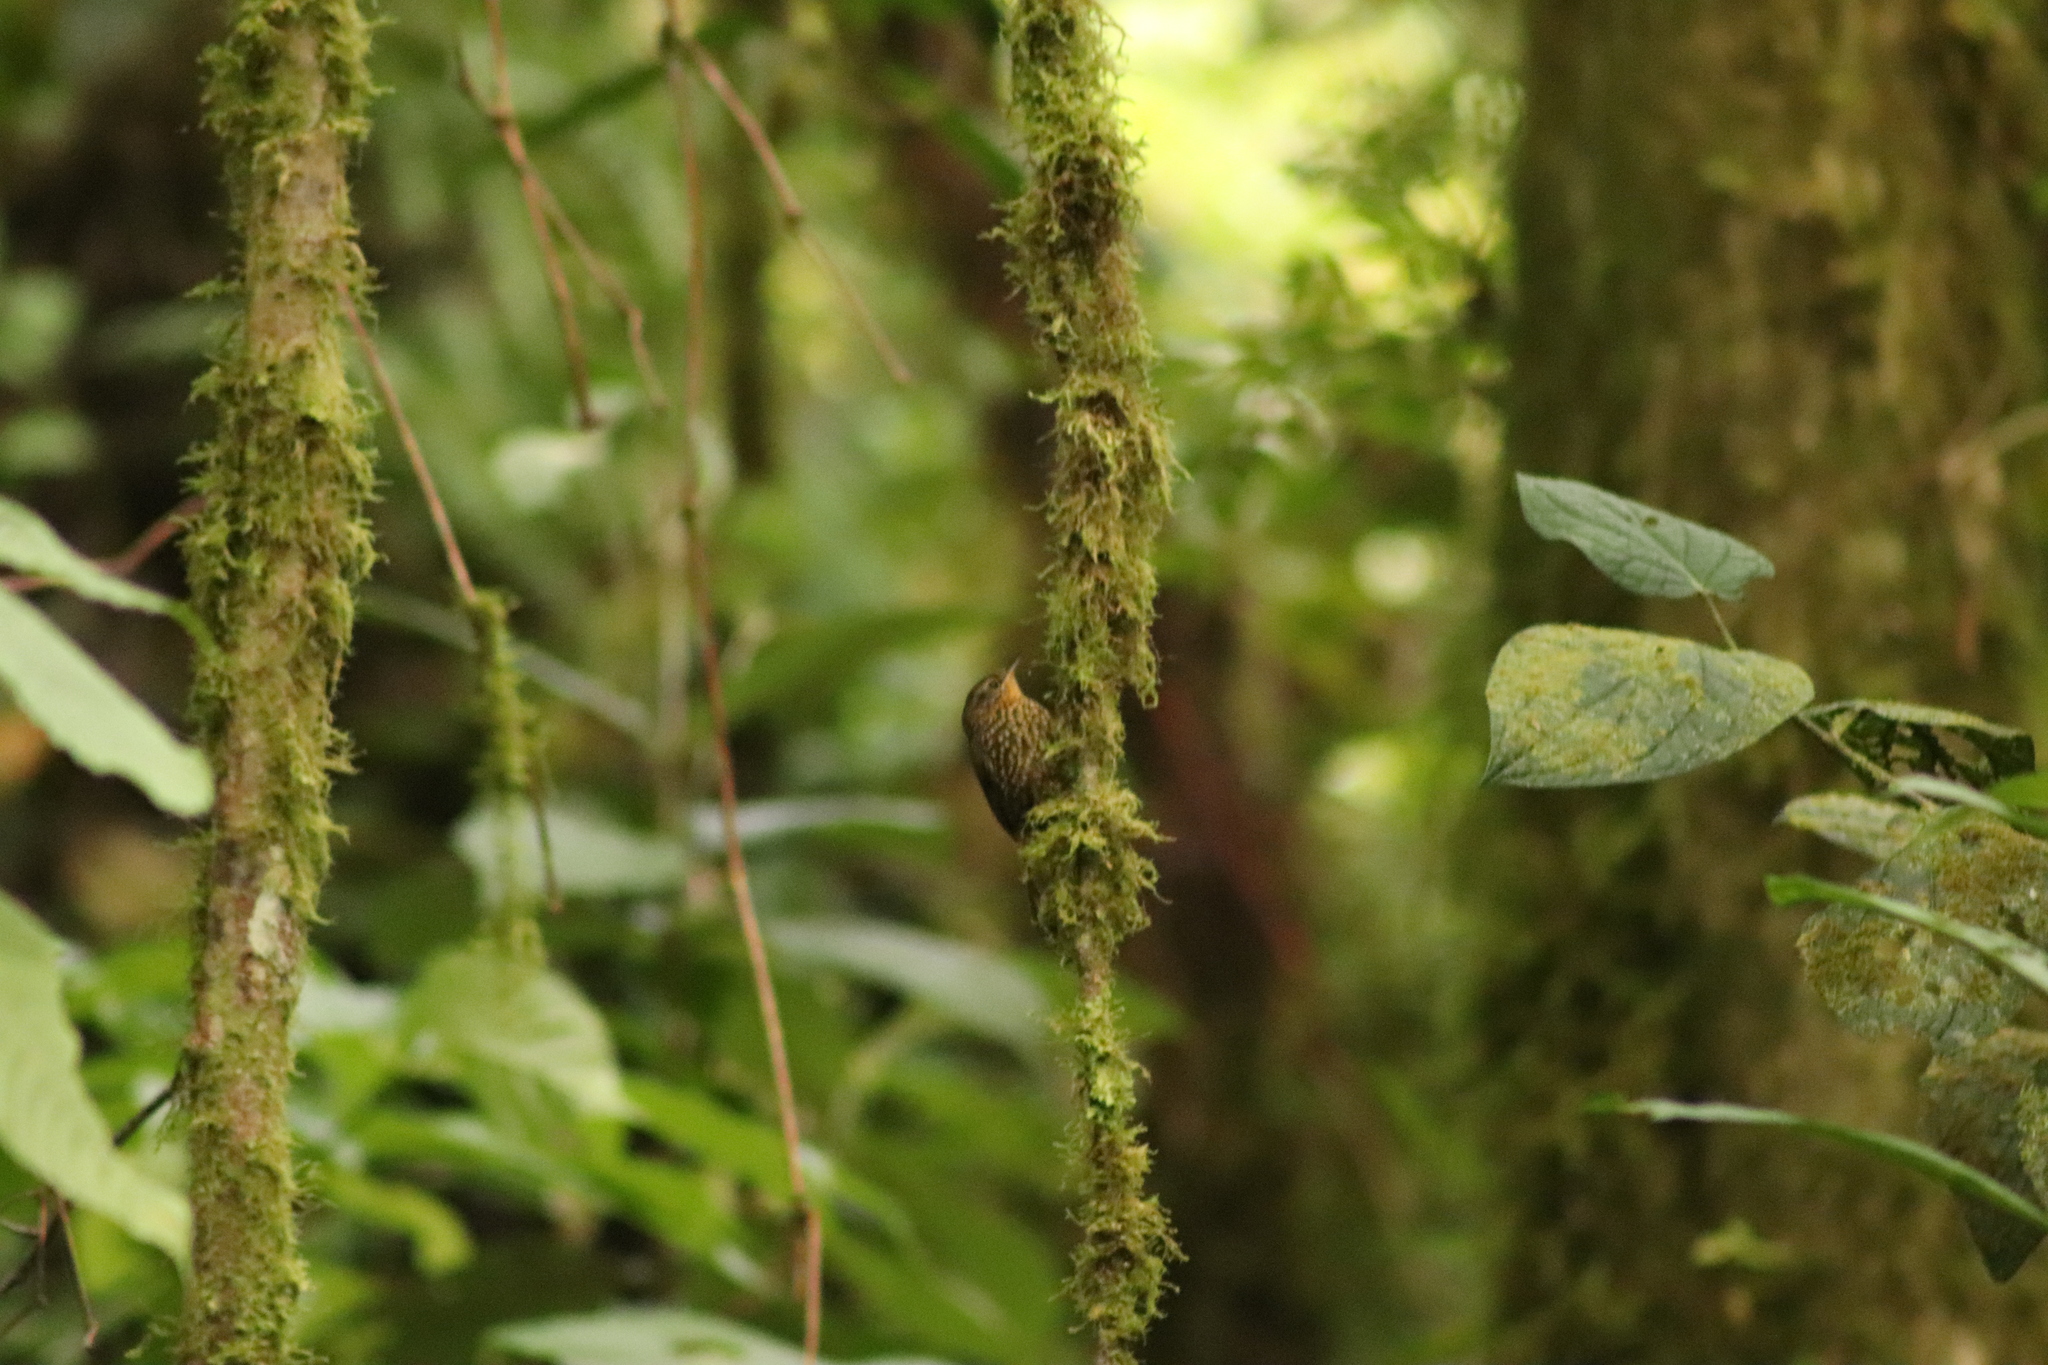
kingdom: Animalia
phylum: Chordata
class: Aves
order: Passeriformes
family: Furnariidae
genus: Premnoplex
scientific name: Premnoplex brunnescens
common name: Spotted barbtail
